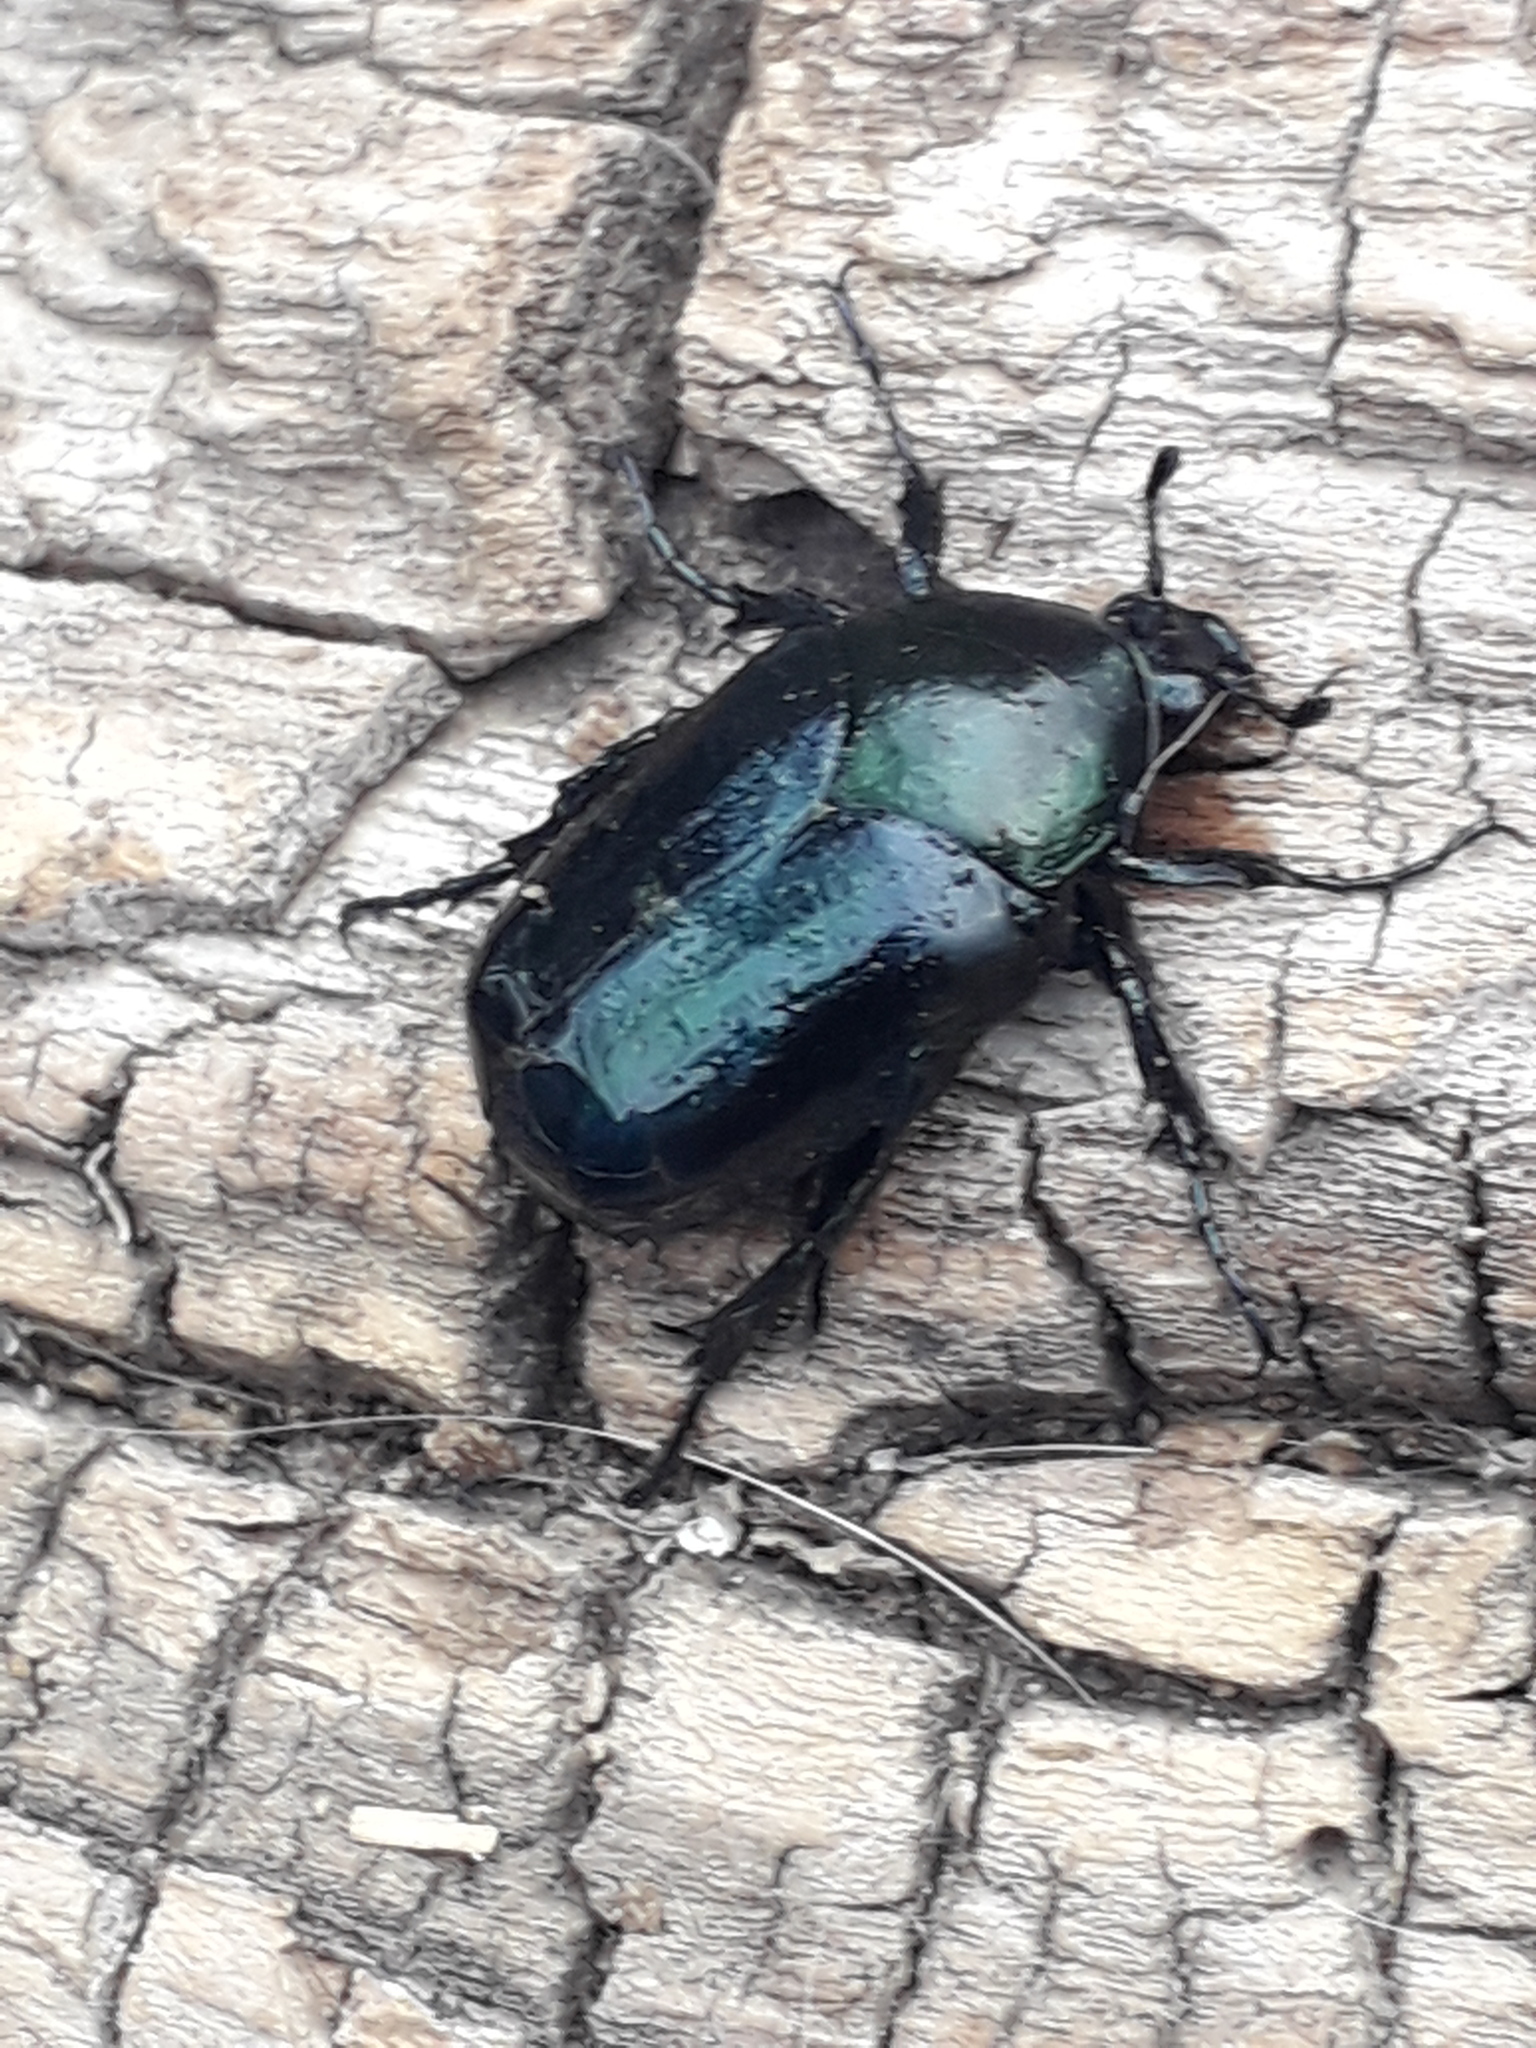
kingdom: Animalia
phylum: Arthropoda
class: Insecta
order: Coleoptera
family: Scarabaeidae
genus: Cotinis
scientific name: Cotinis antonii
